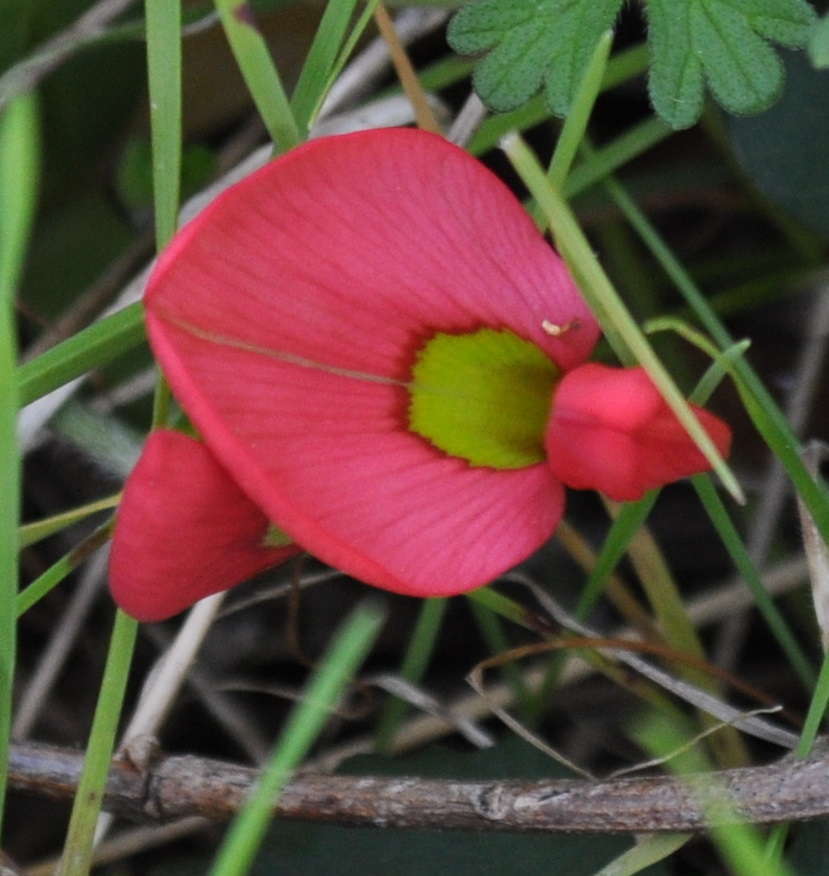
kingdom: Plantae
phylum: Tracheophyta
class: Magnoliopsida
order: Fabales
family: Fabaceae
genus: Kennedia
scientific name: Kennedia prostrata
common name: Running-postman
